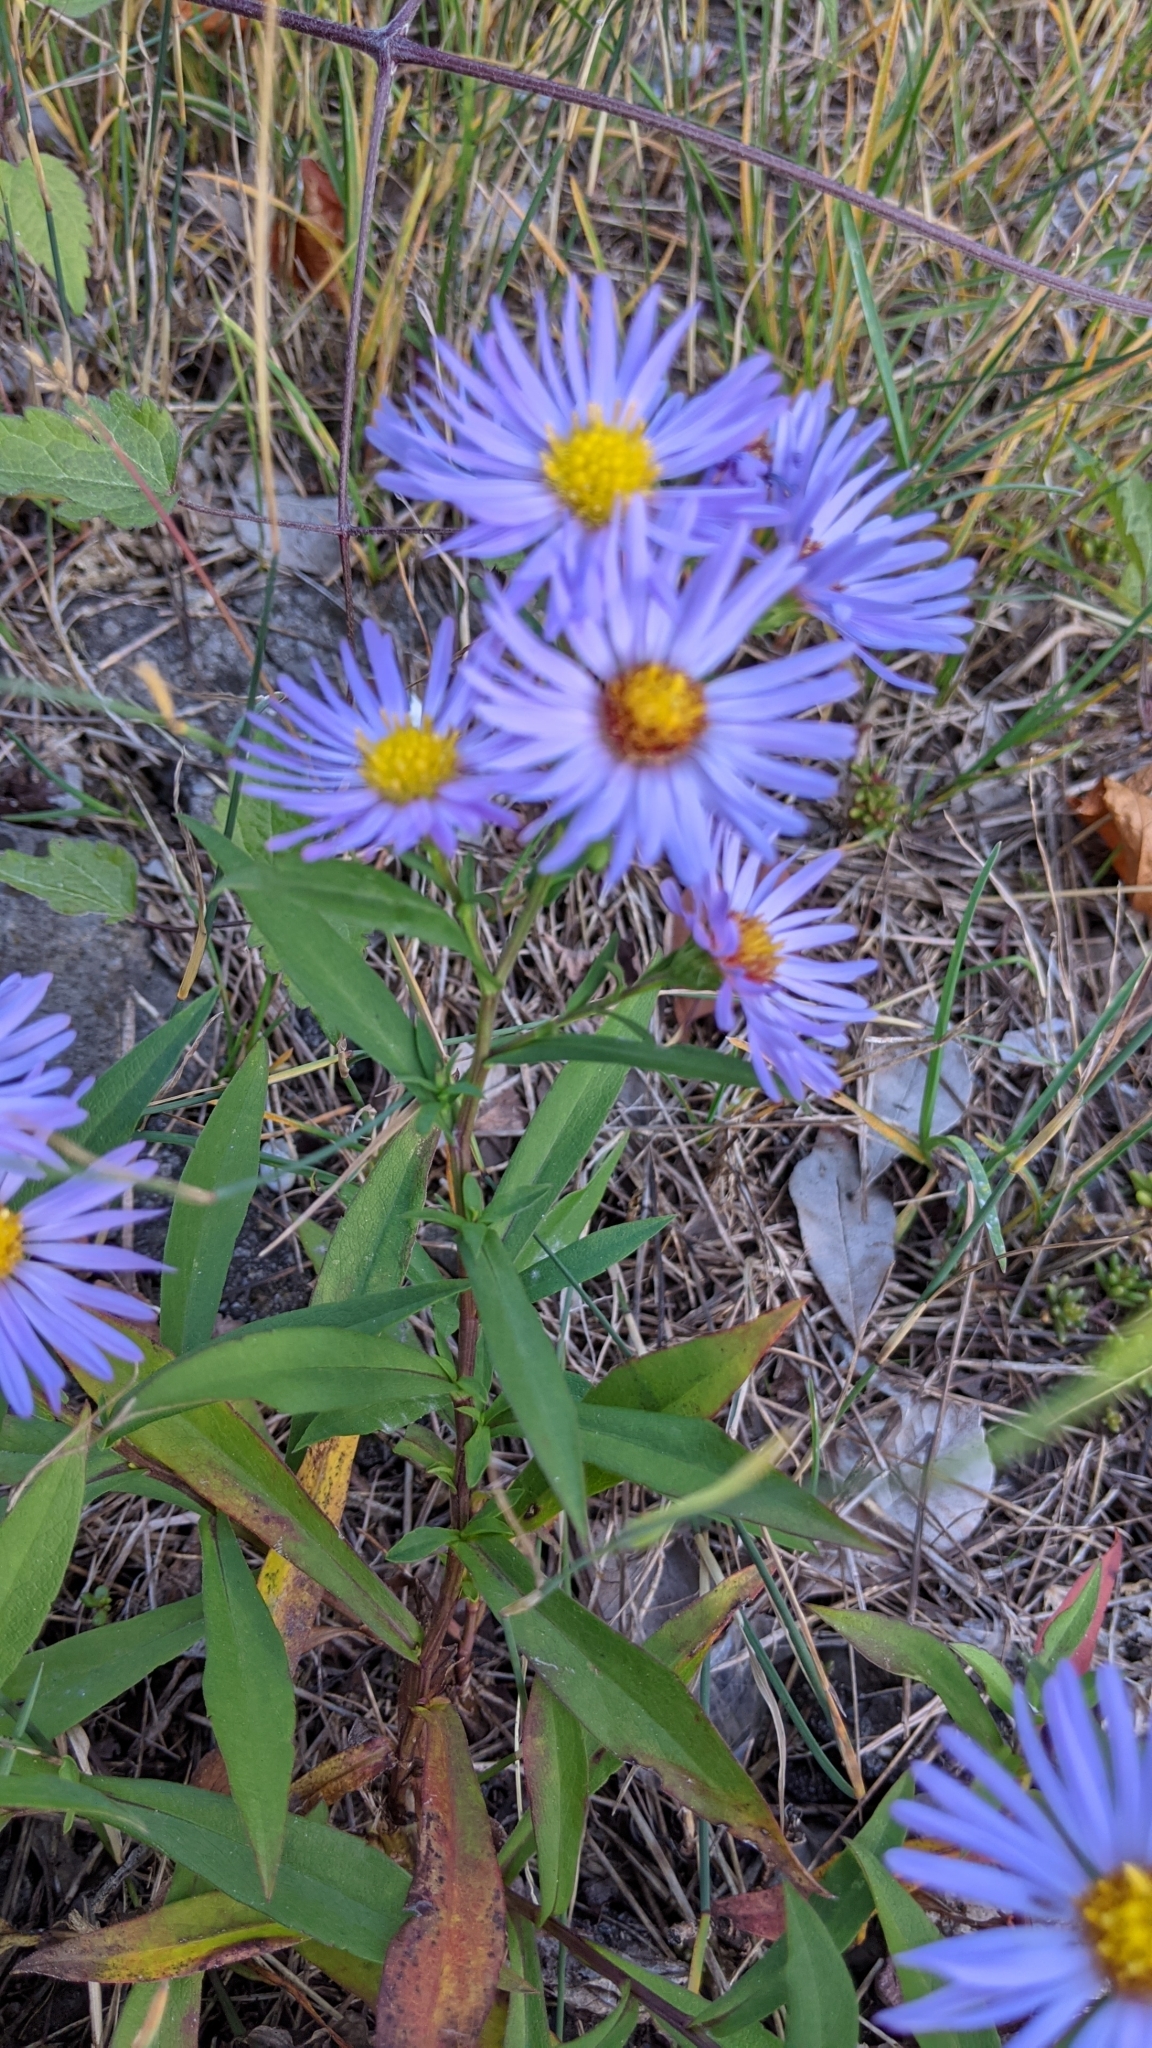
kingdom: Plantae
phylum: Tracheophyta
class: Magnoliopsida
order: Asterales
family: Asteraceae
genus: Aster
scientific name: Aster amellus
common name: European michaelmas daisy
